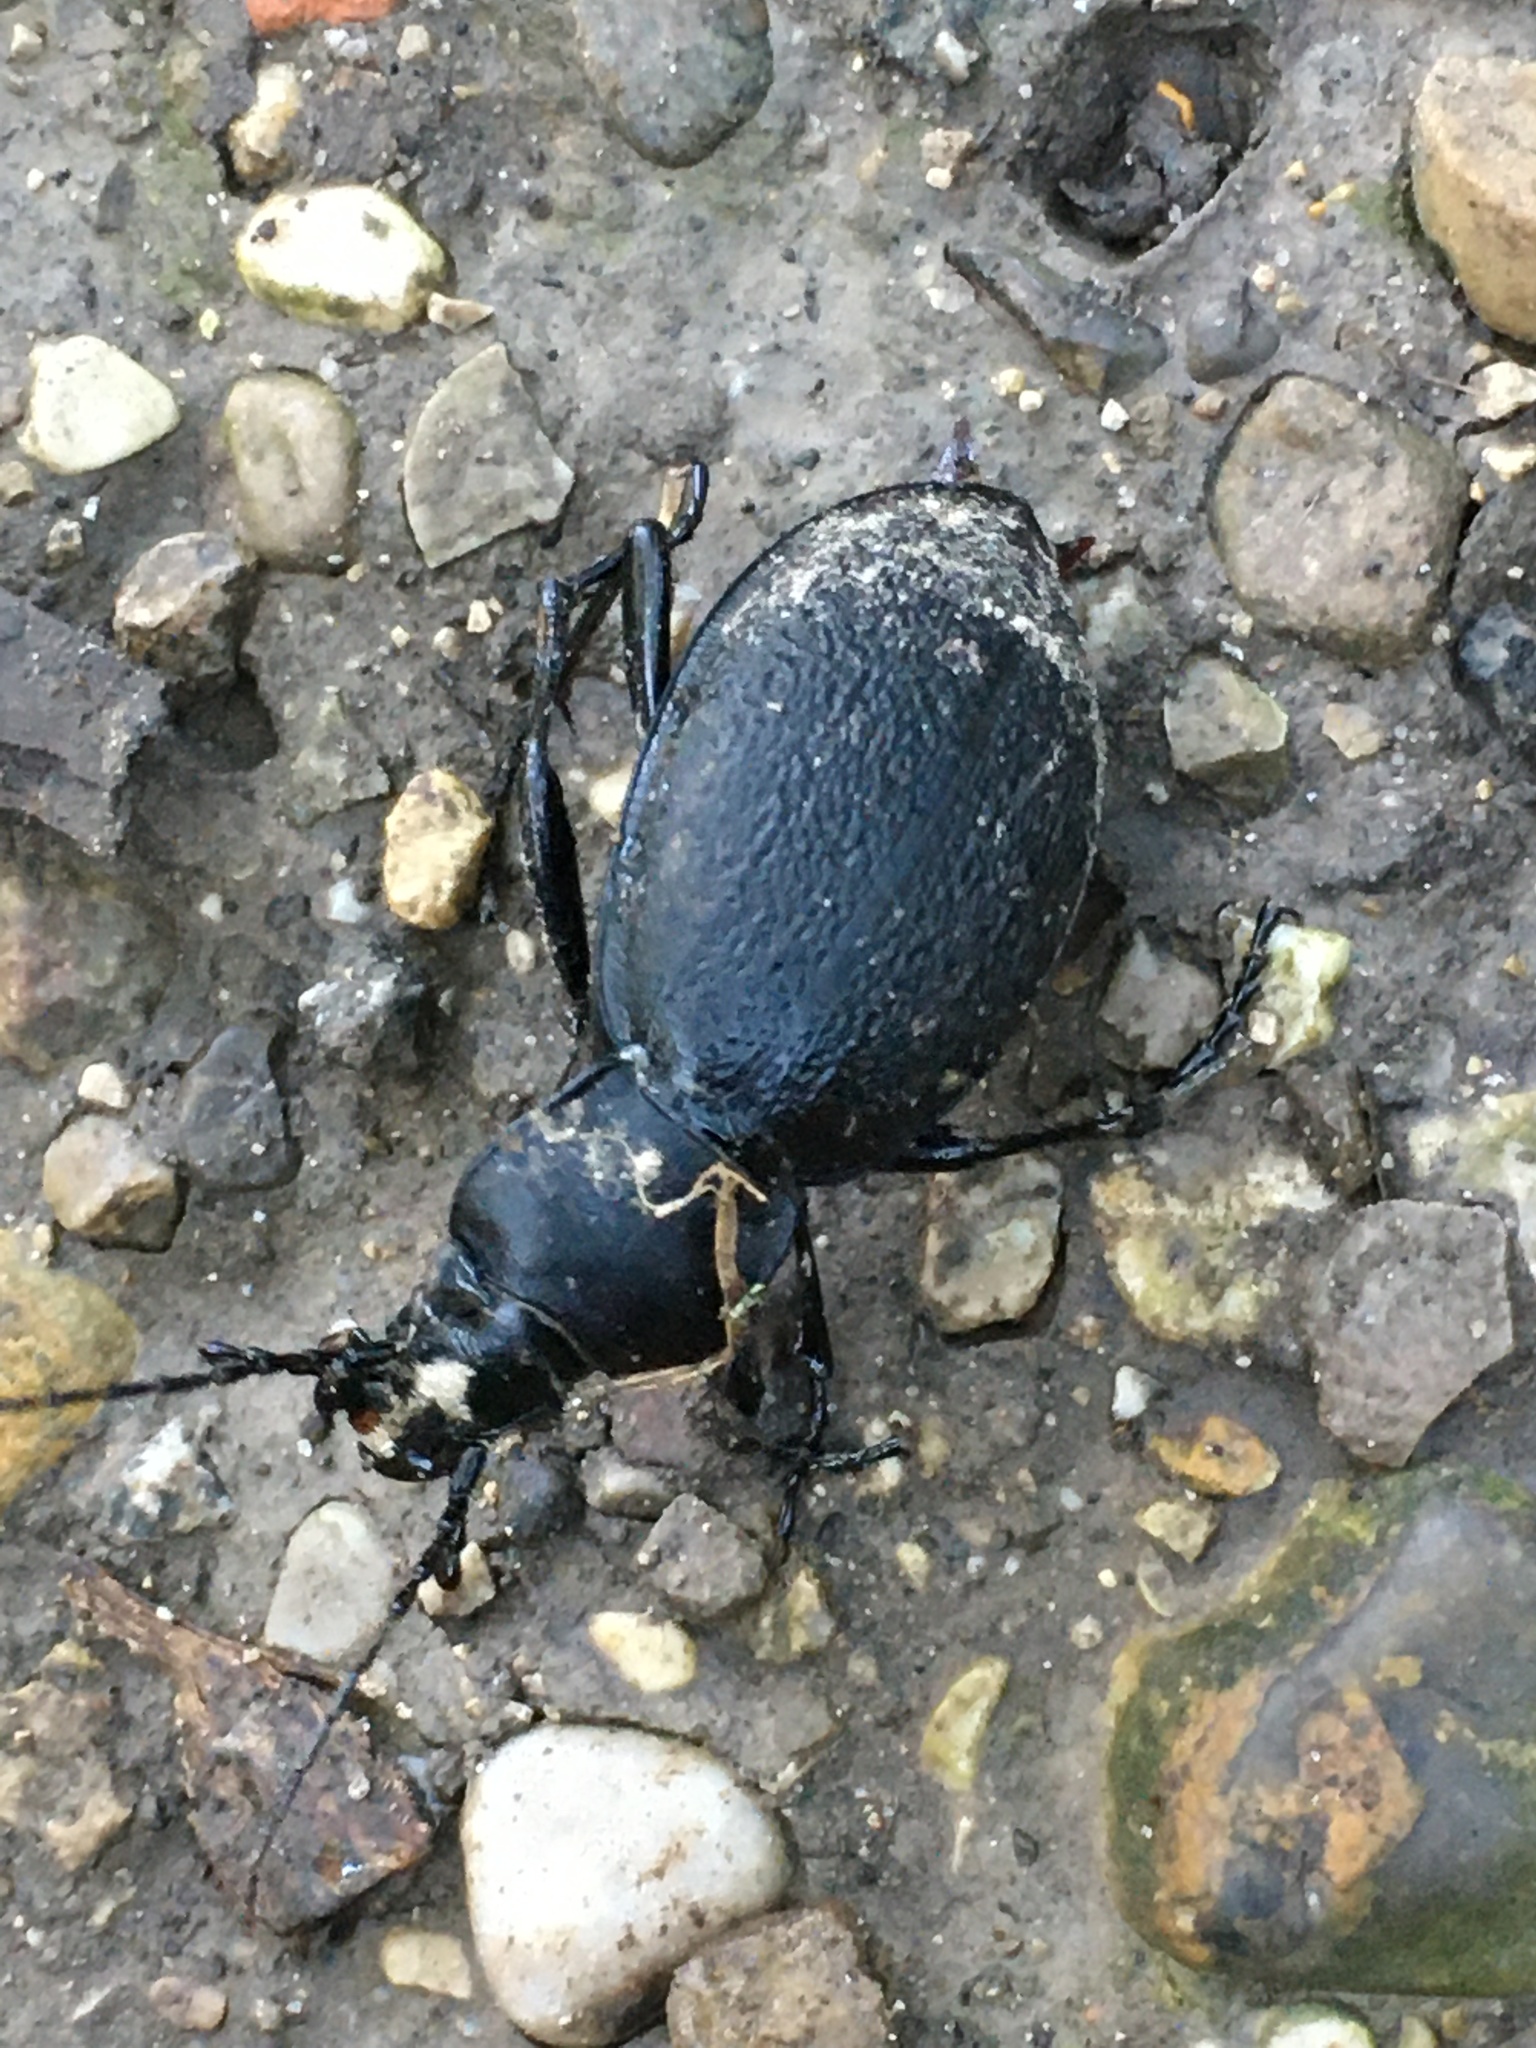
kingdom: Animalia
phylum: Arthropoda
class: Insecta
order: Coleoptera
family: Carabidae
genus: Carabus
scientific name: Carabus coriaceus
